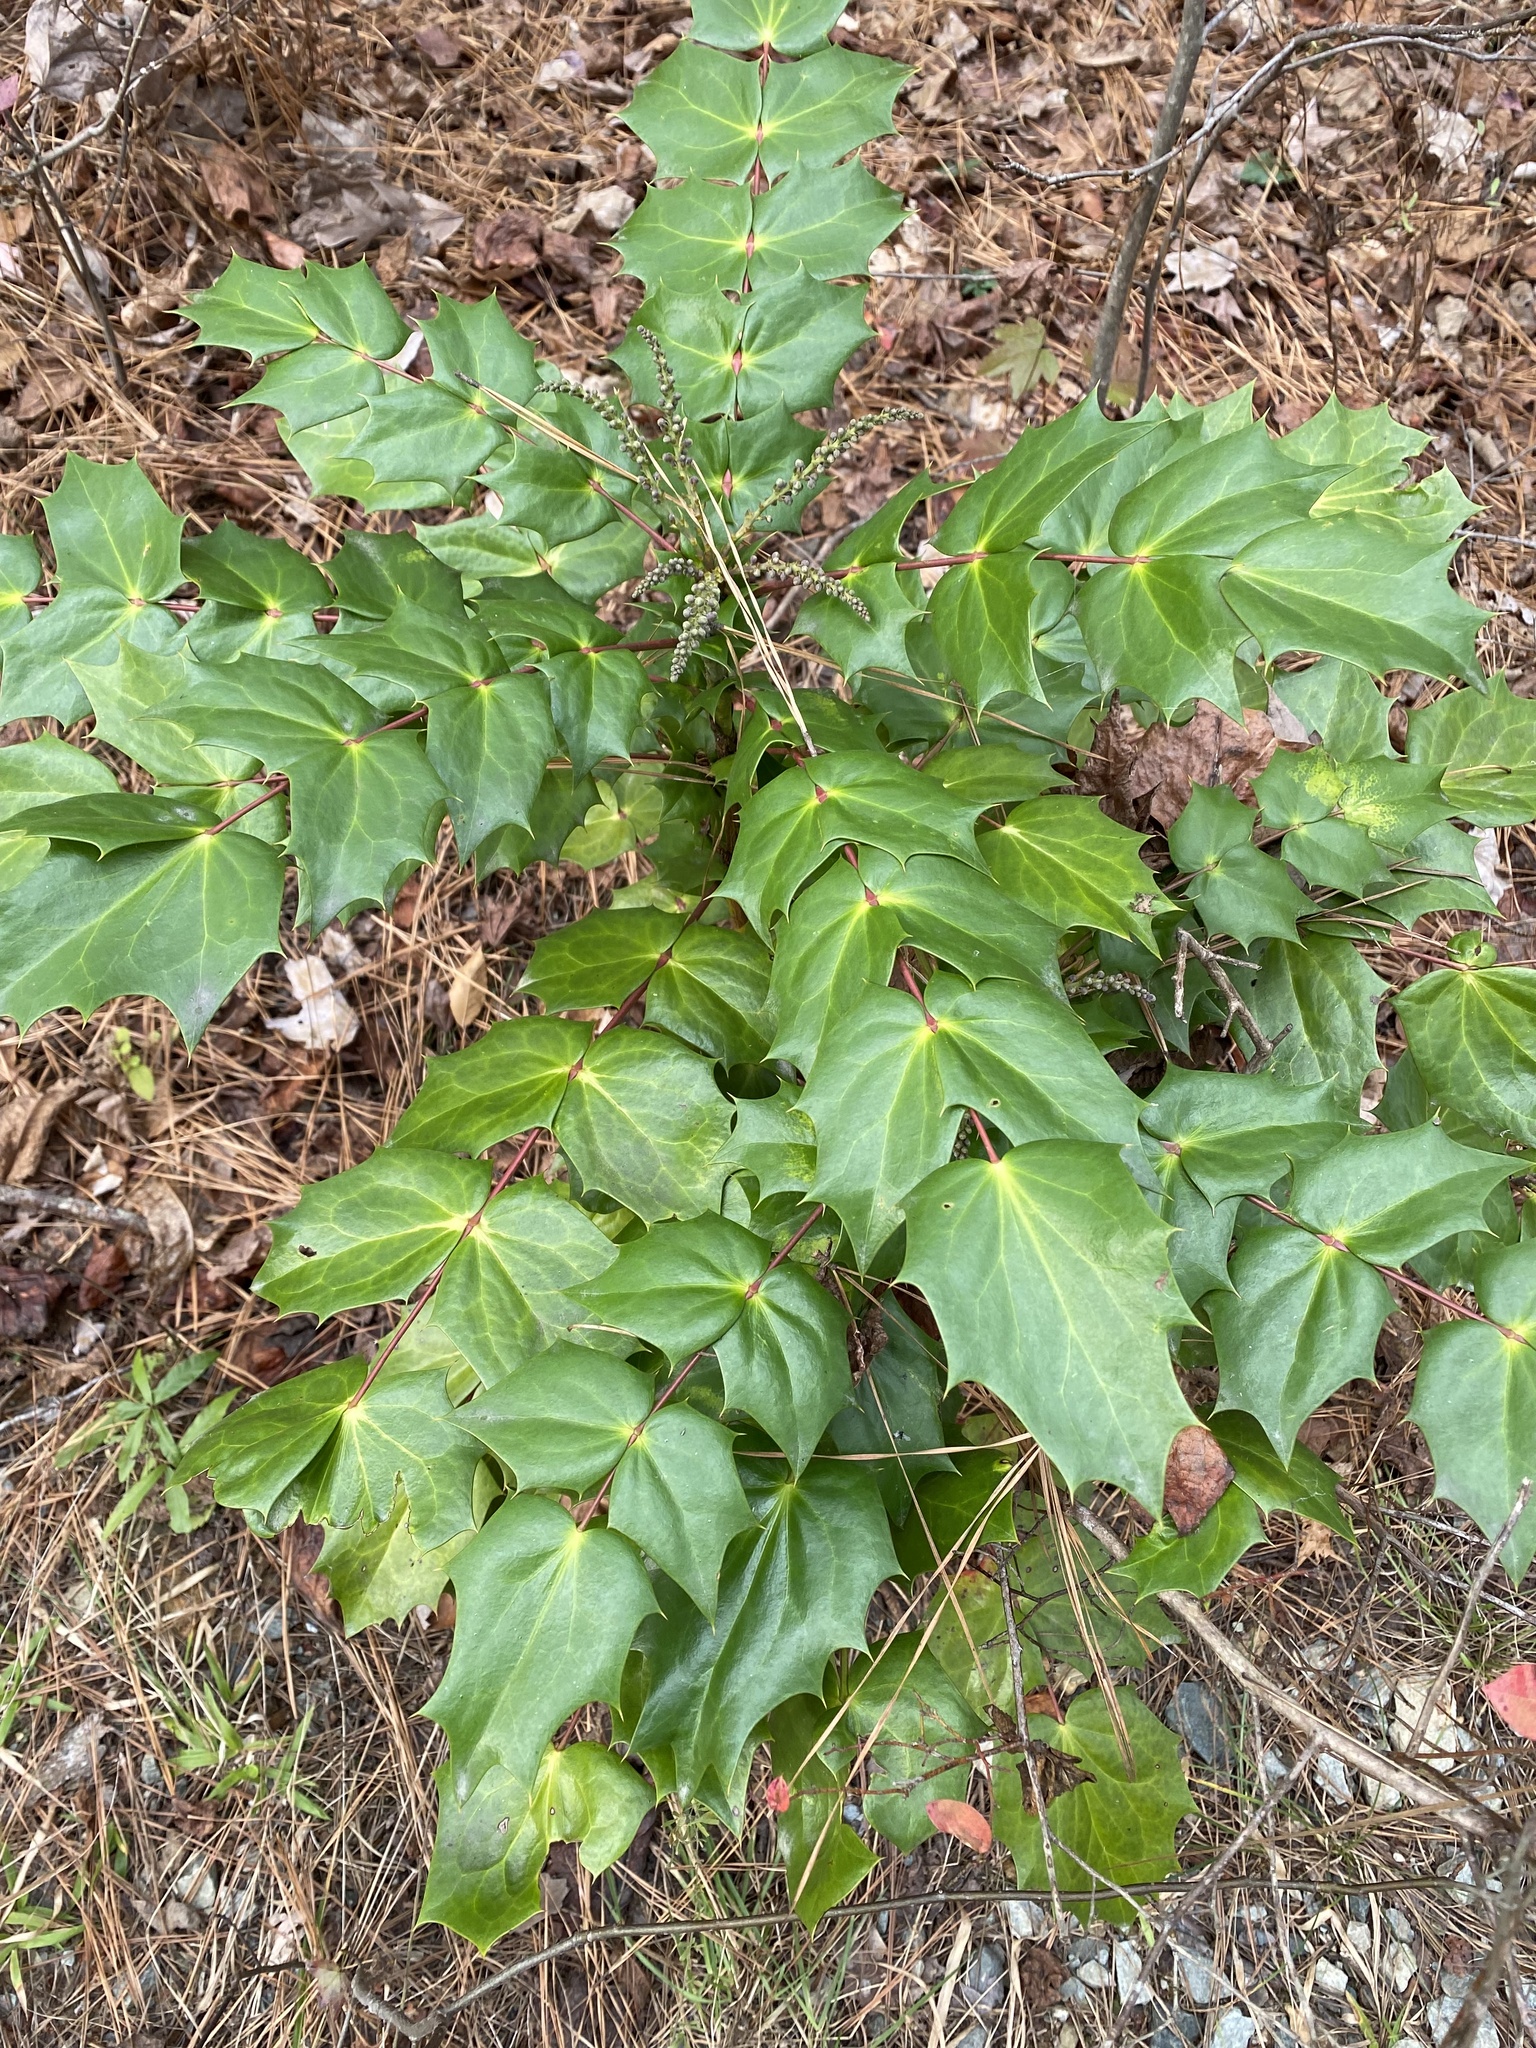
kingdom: Plantae
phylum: Tracheophyta
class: Magnoliopsida
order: Ranunculales
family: Berberidaceae
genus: Mahonia
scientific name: Mahonia bealei
